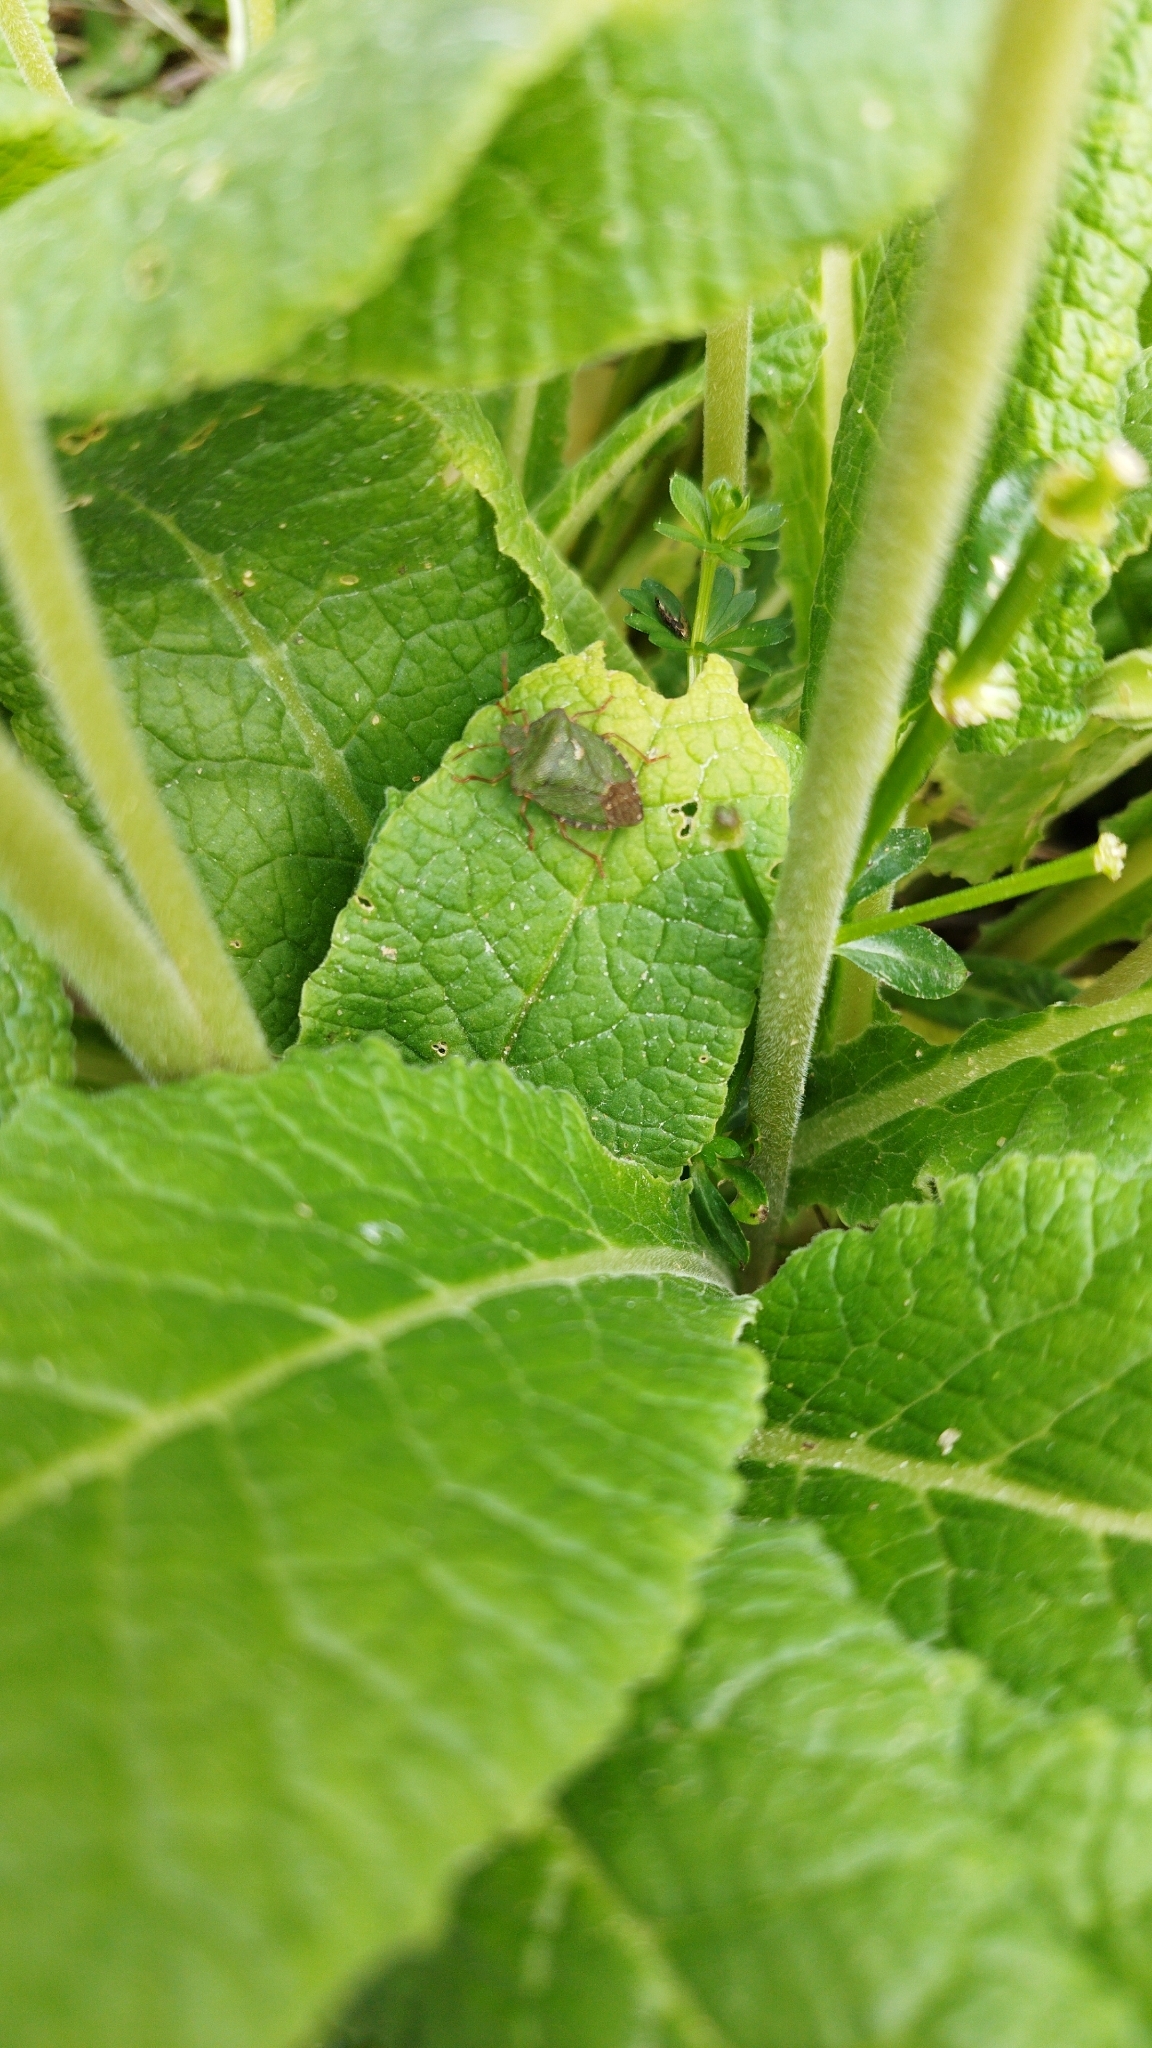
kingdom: Animalia
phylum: Arthropoda
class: Insecta
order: Hemiptera
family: Pentatomidae
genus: Palomena
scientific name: Palomena prasina
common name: Green shieldbug
